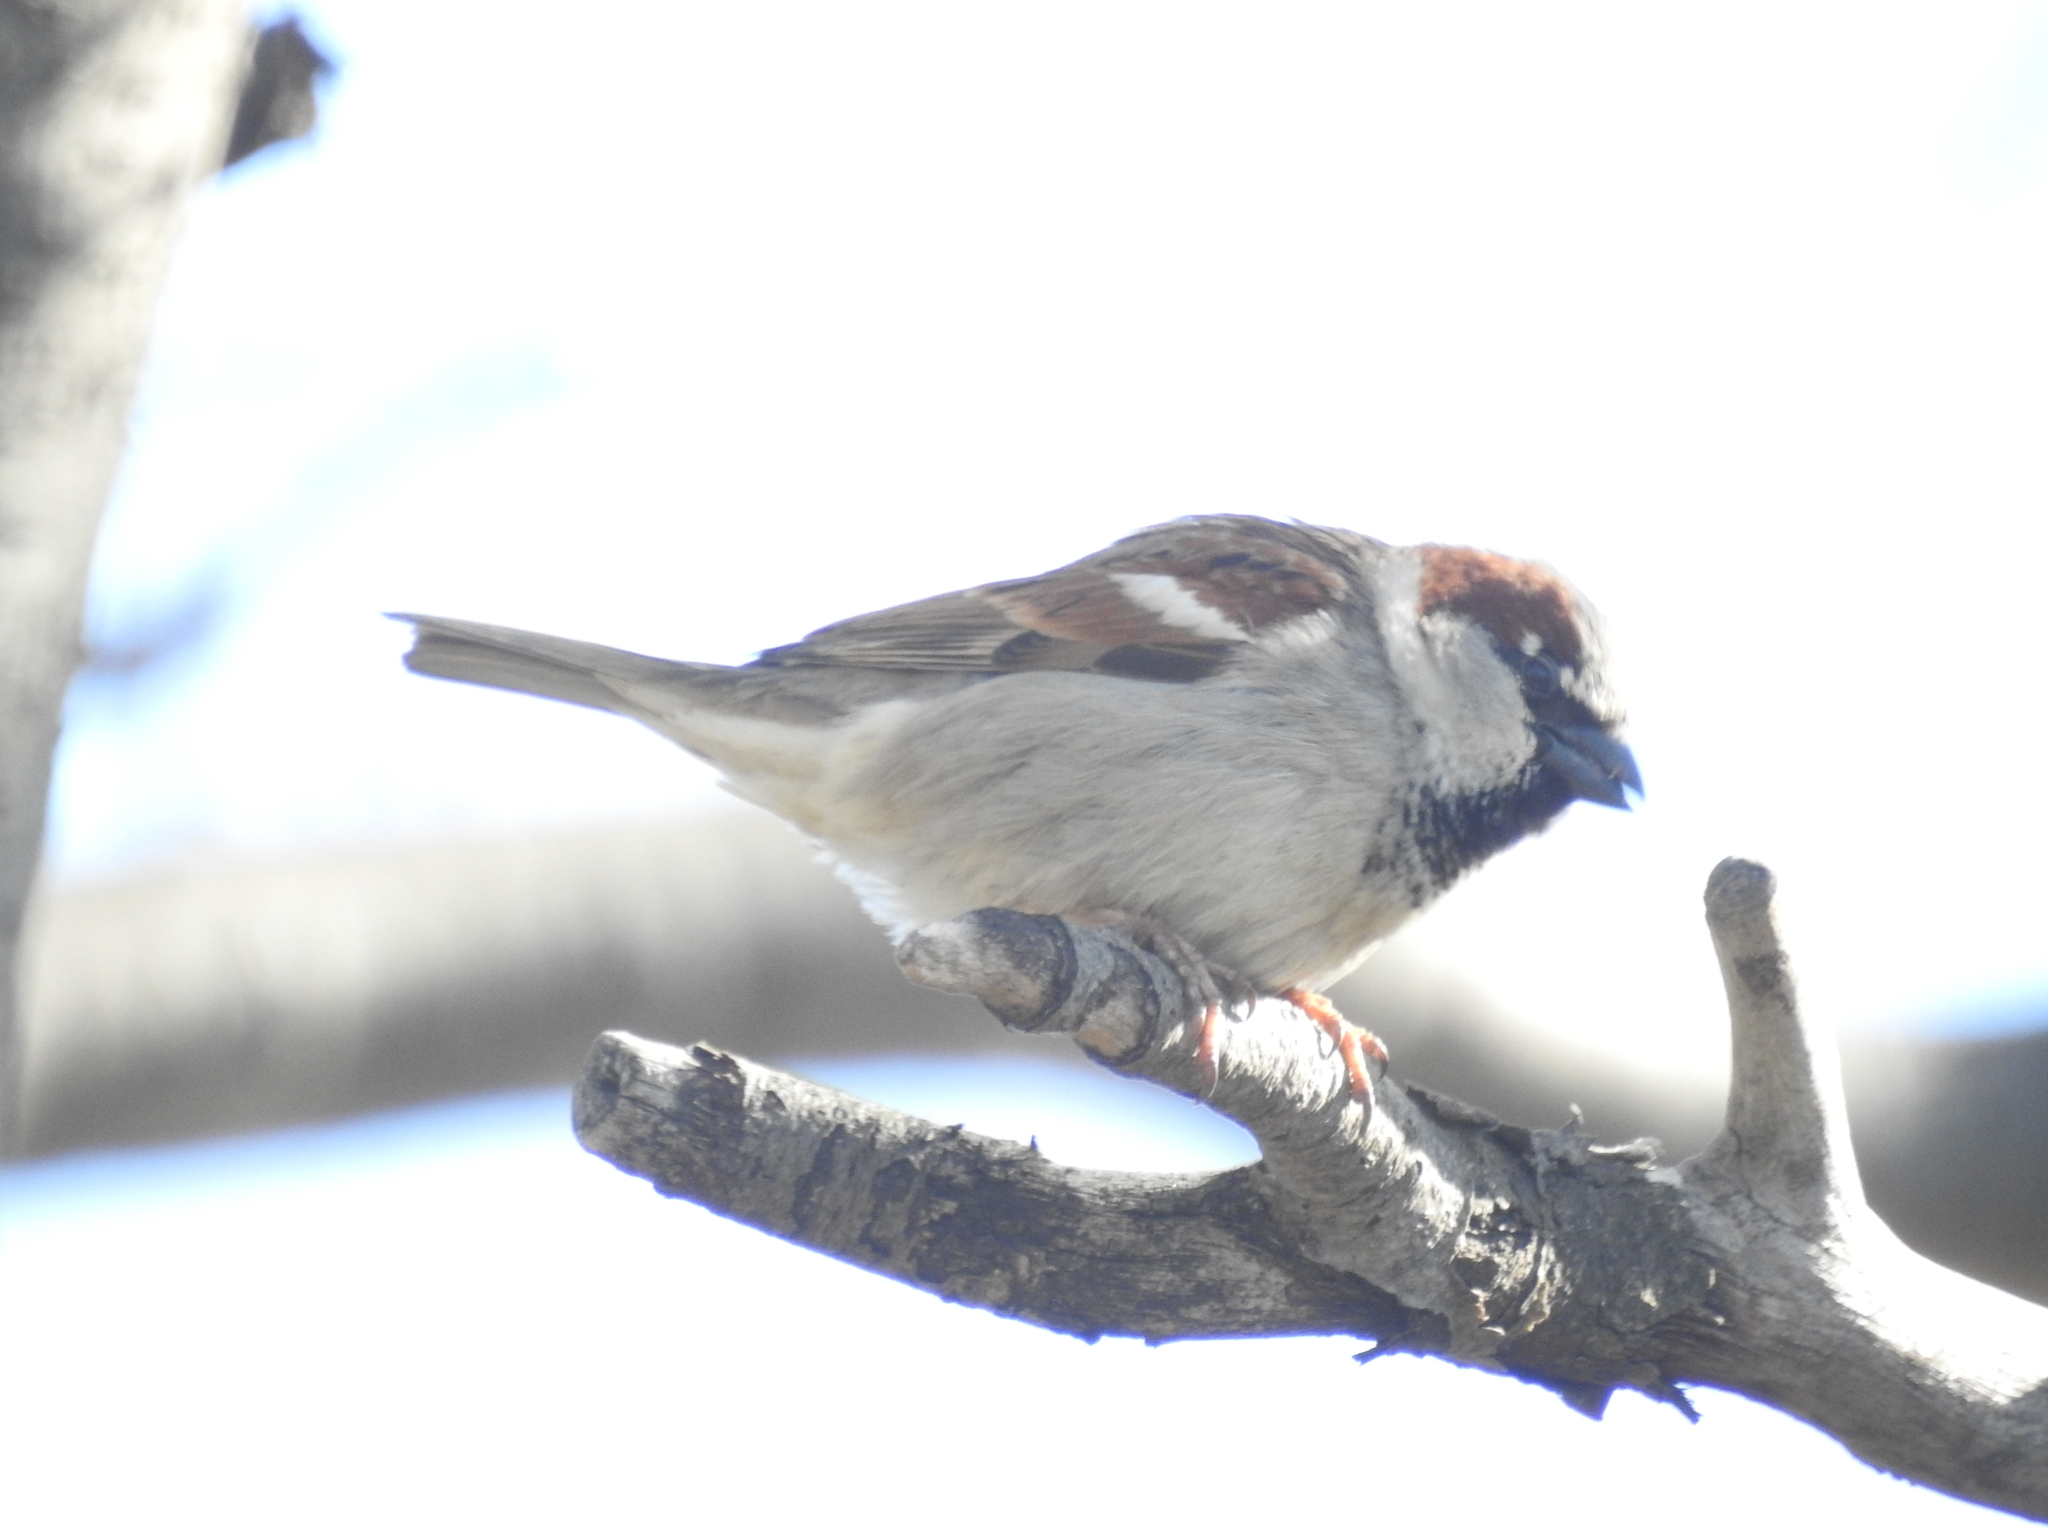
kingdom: Animalia
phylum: Chordata
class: Aves
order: Passeriformes
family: Passeridae
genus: Passer
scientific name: Passer domesticus
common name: House sparrow
